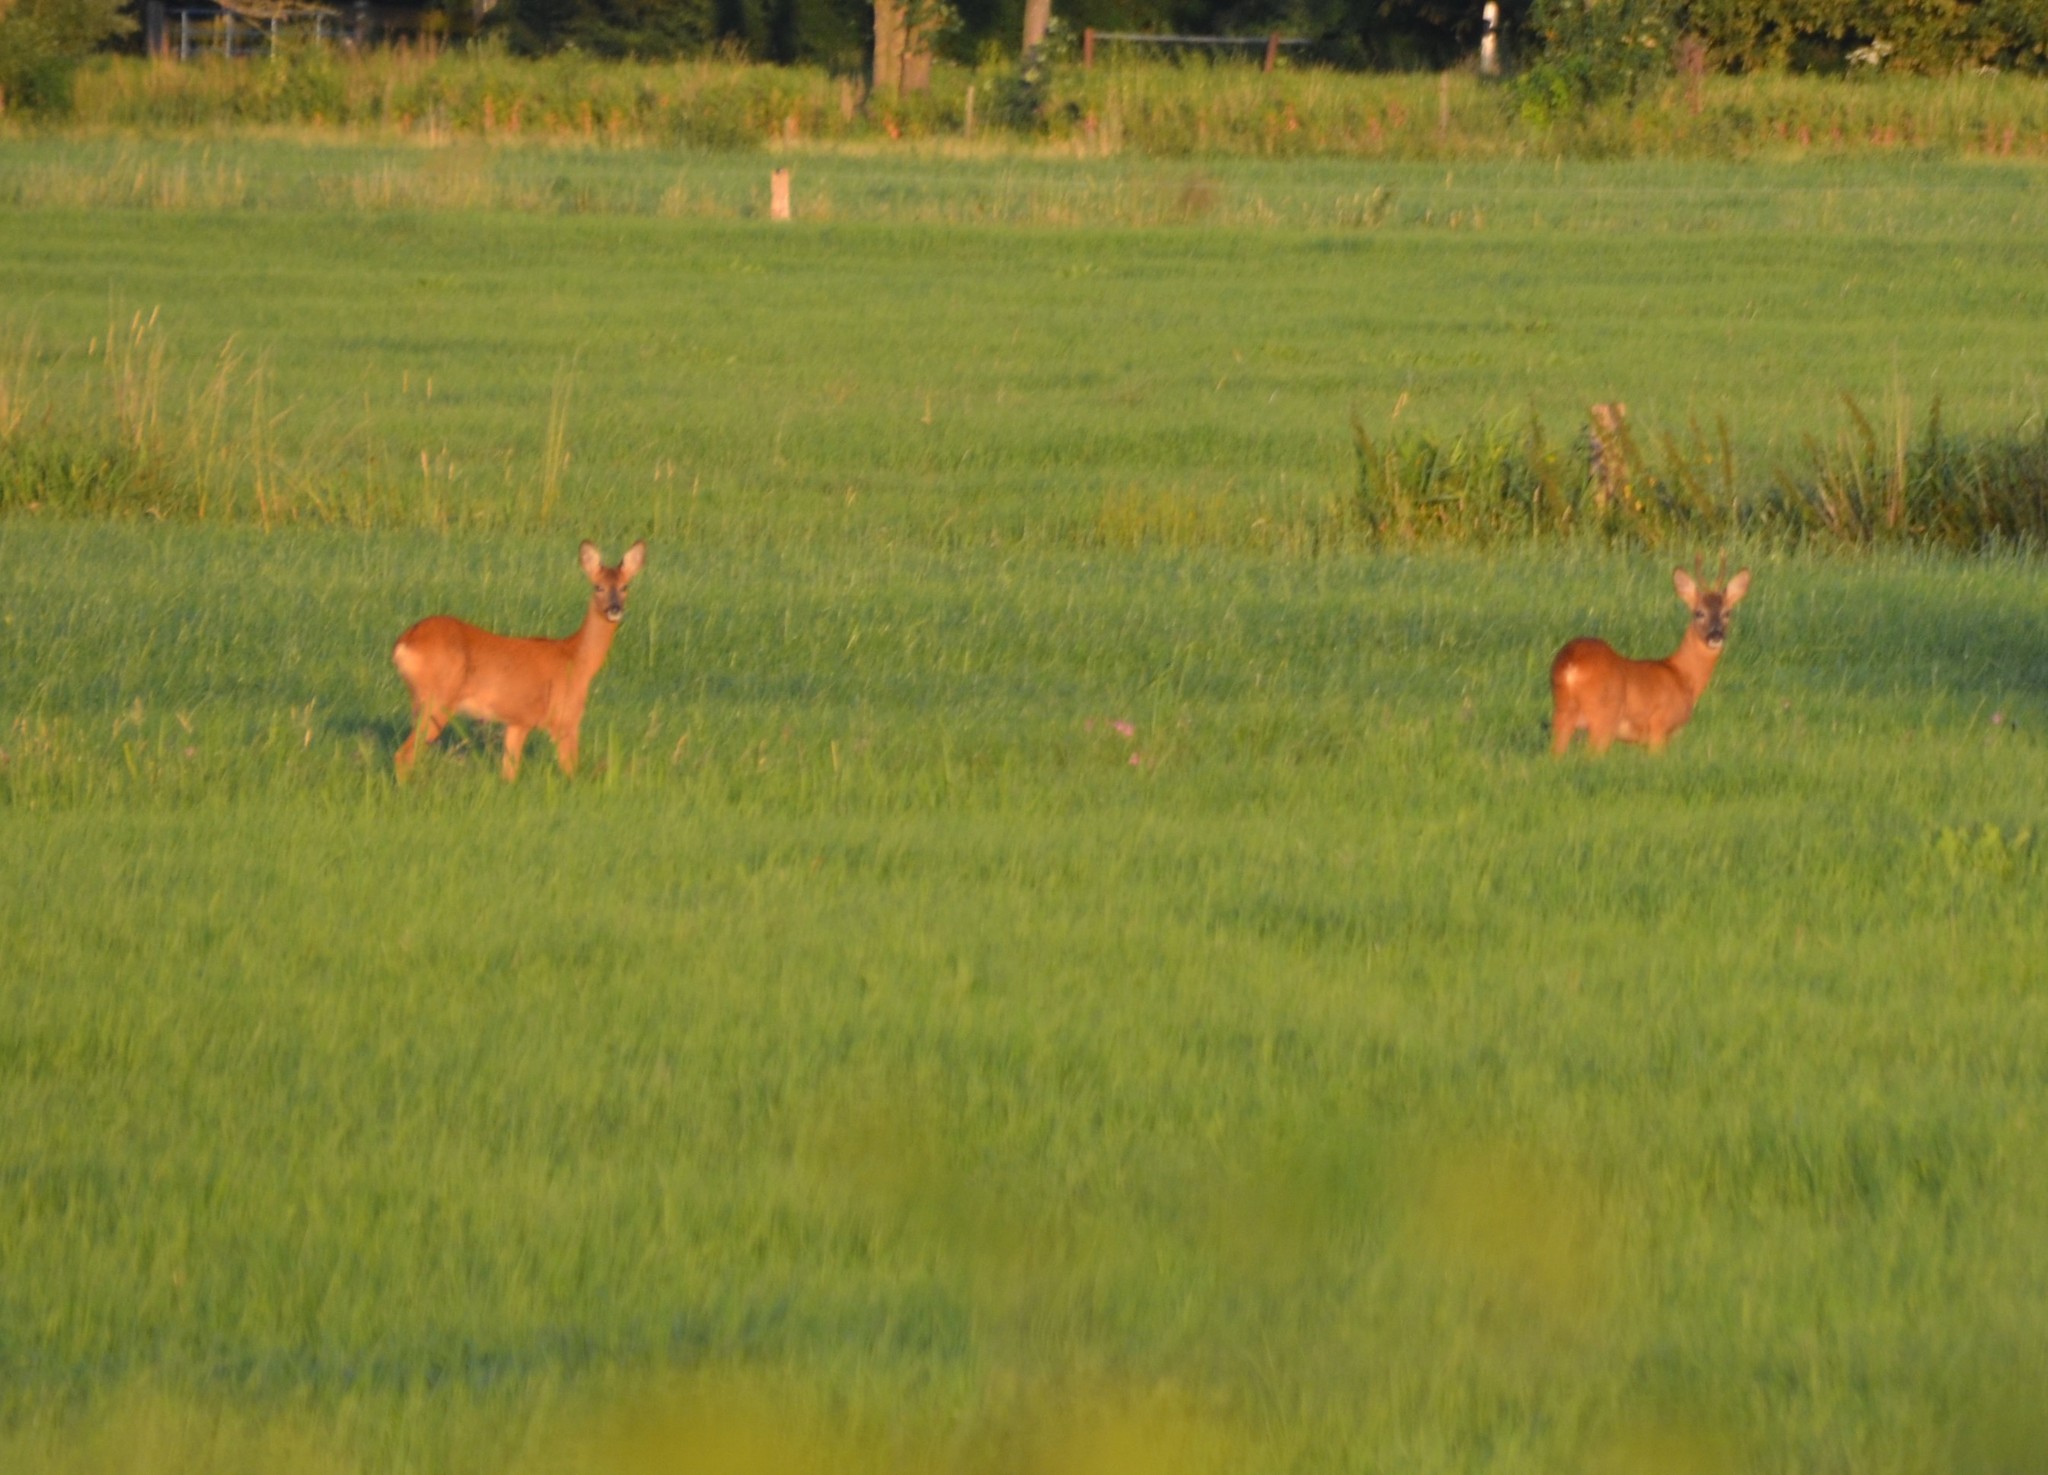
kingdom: Animalia
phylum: Chordata
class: Mammalia
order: Artiodactyla
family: Cervidae
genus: Capreolus
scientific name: Capreolus capreolus
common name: Western roe deer
